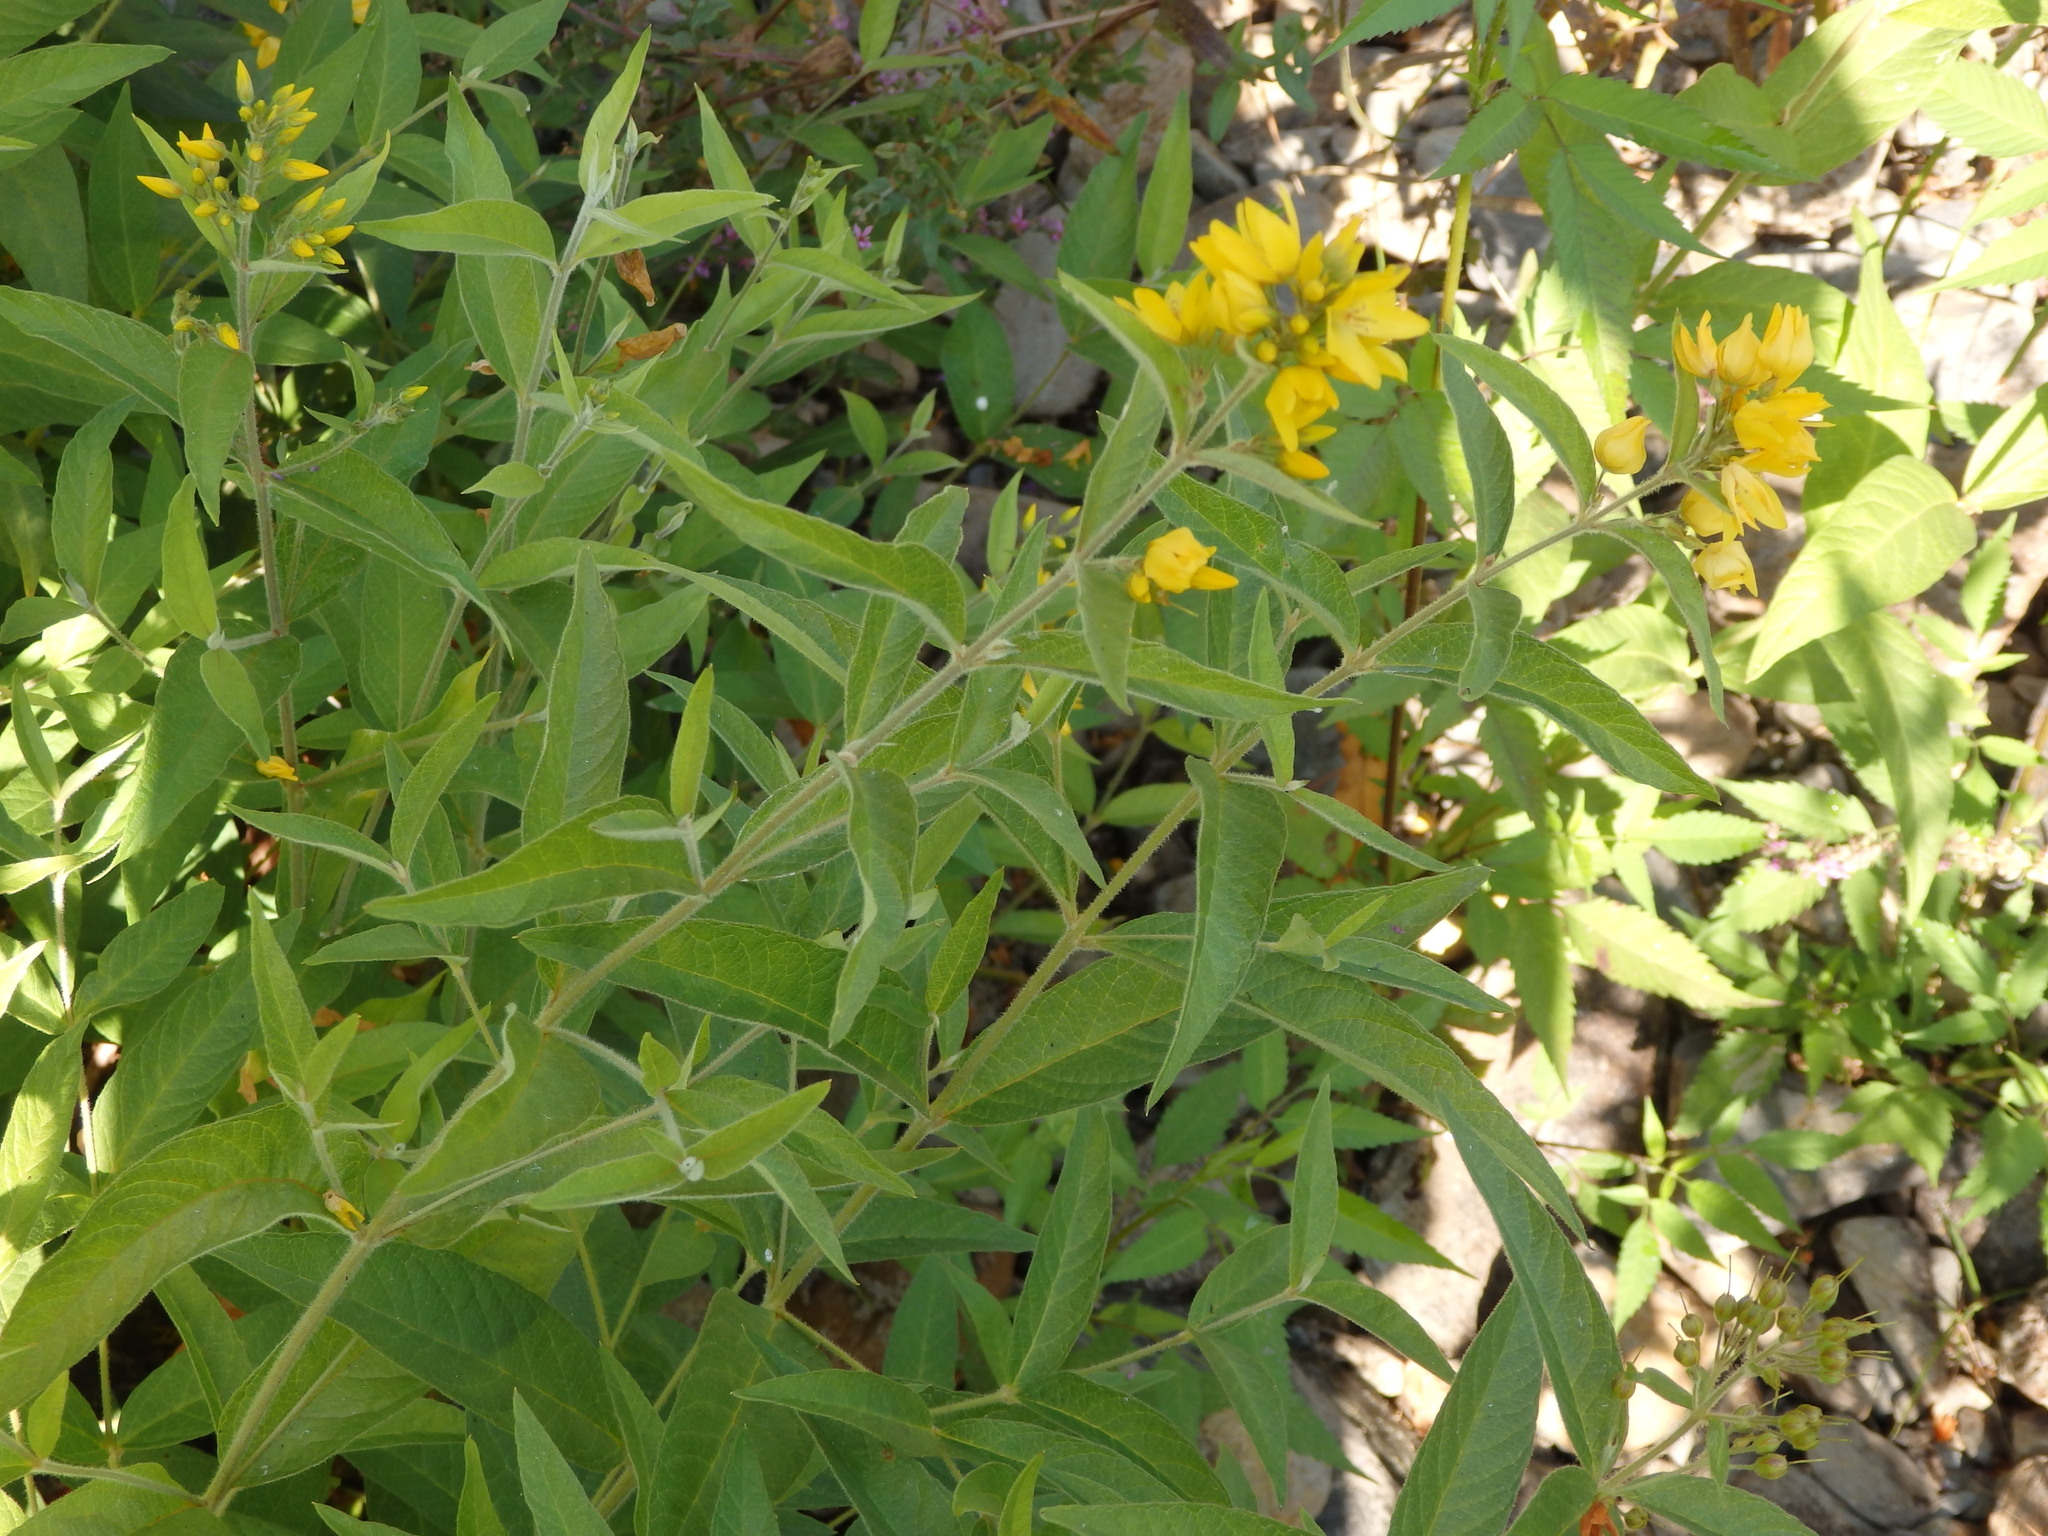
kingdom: Plantae
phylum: Tracheophyta
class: Magnoliopsida
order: Ericales
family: Primulaceae
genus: Lysimachia
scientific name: Lysimachia vulgaris
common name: Yellow loosestrife
